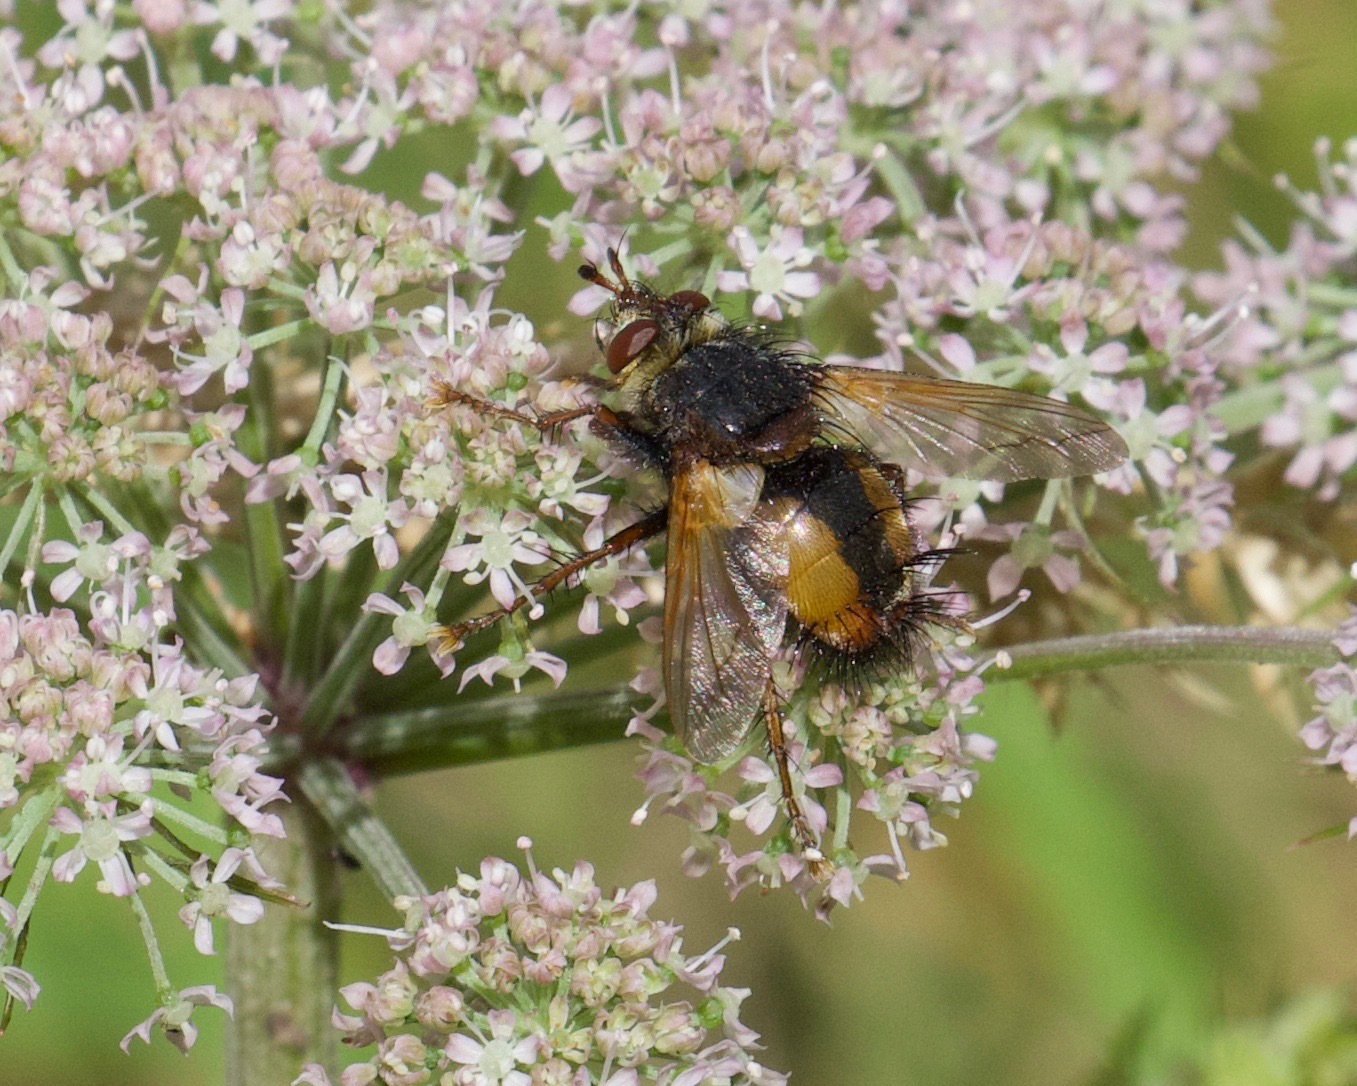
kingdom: Animalia
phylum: Arthropoda
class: Insecta
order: Diptera
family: Tachinidae
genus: Tachina
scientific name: Tachina fera
